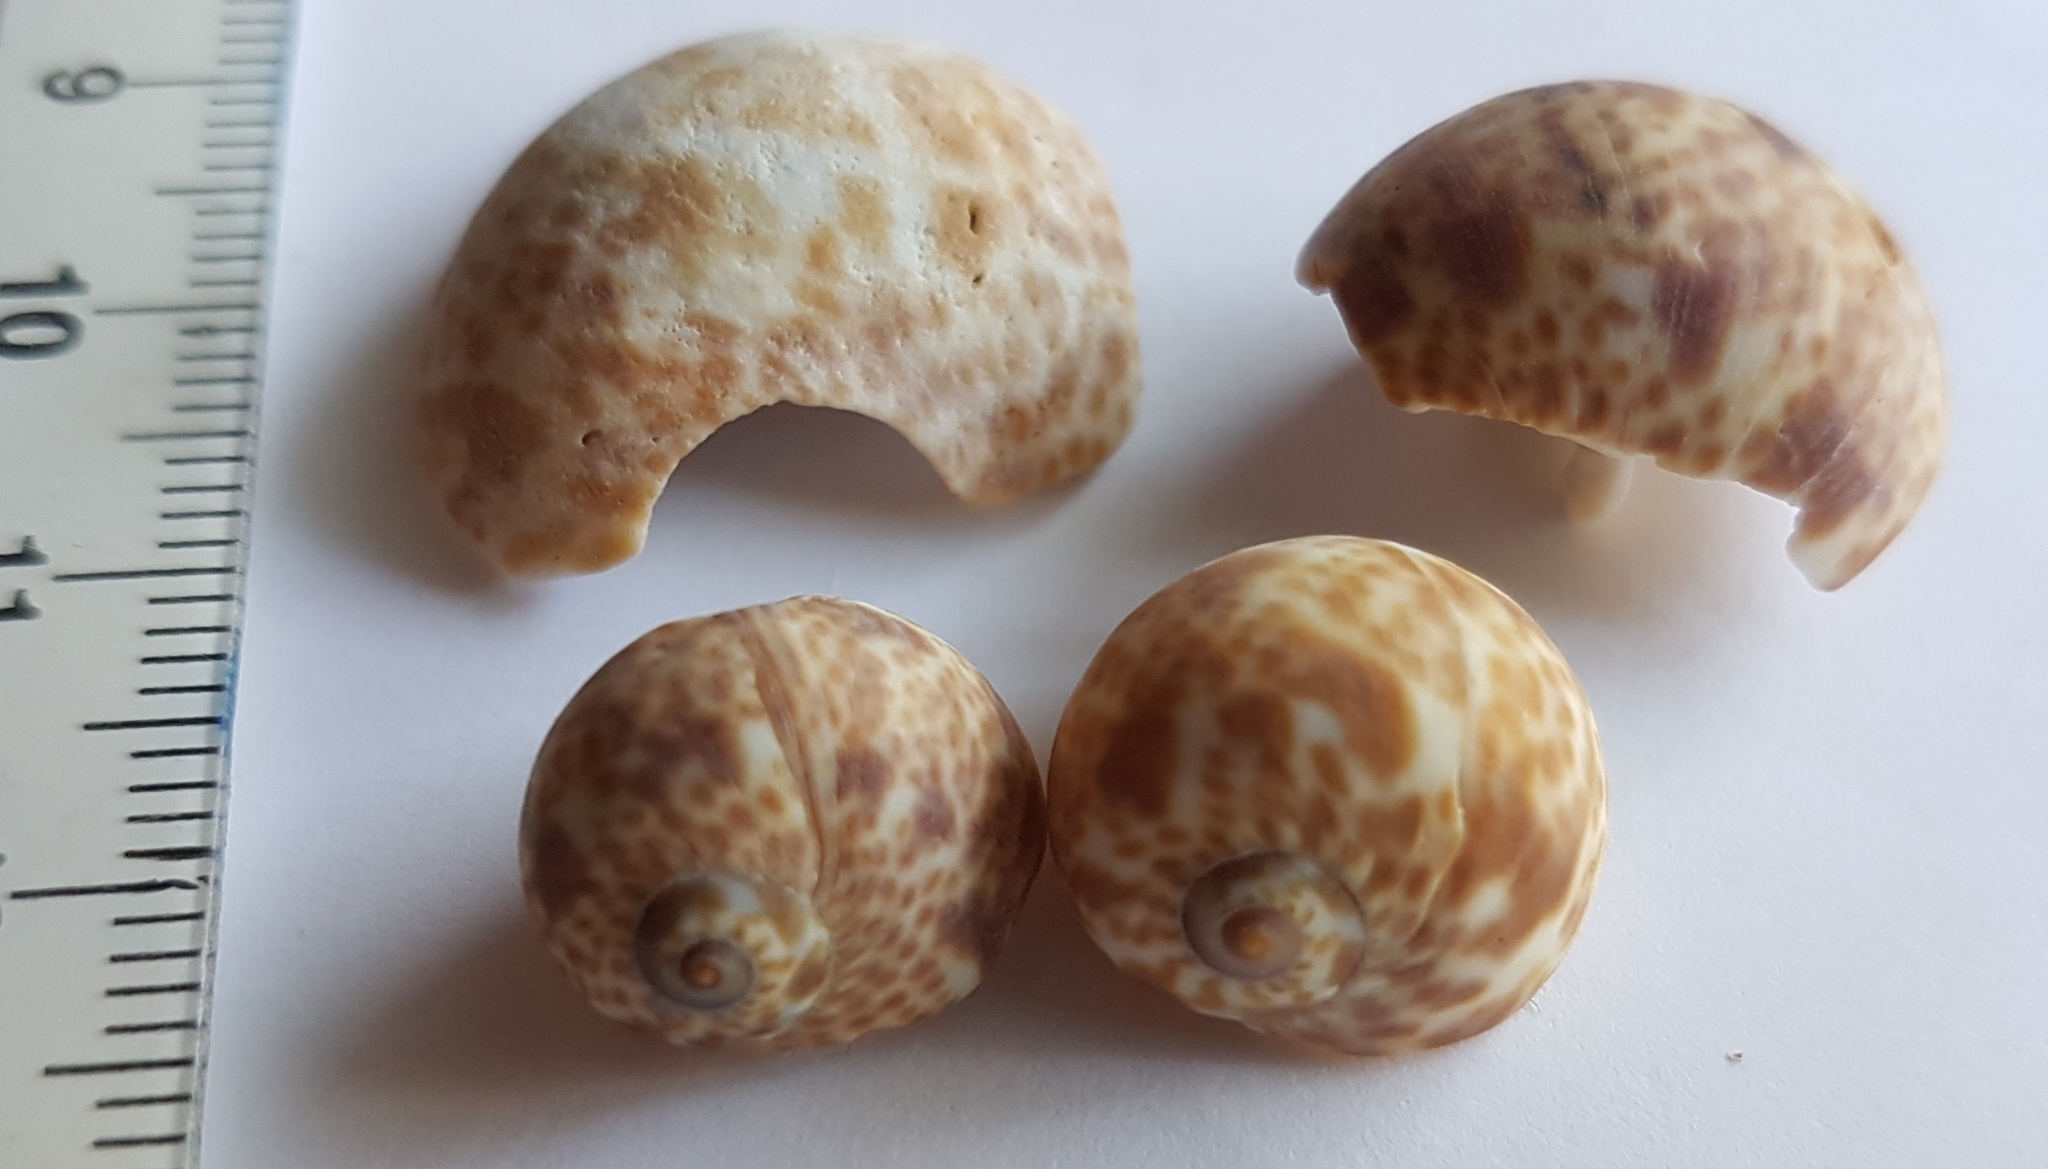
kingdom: Animalia
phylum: Mollusca
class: Gastropoda
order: Littorinimorpha
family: Naticidae
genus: Naticarius
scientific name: Naticarius hebraeus
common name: Hebrew moon shell
